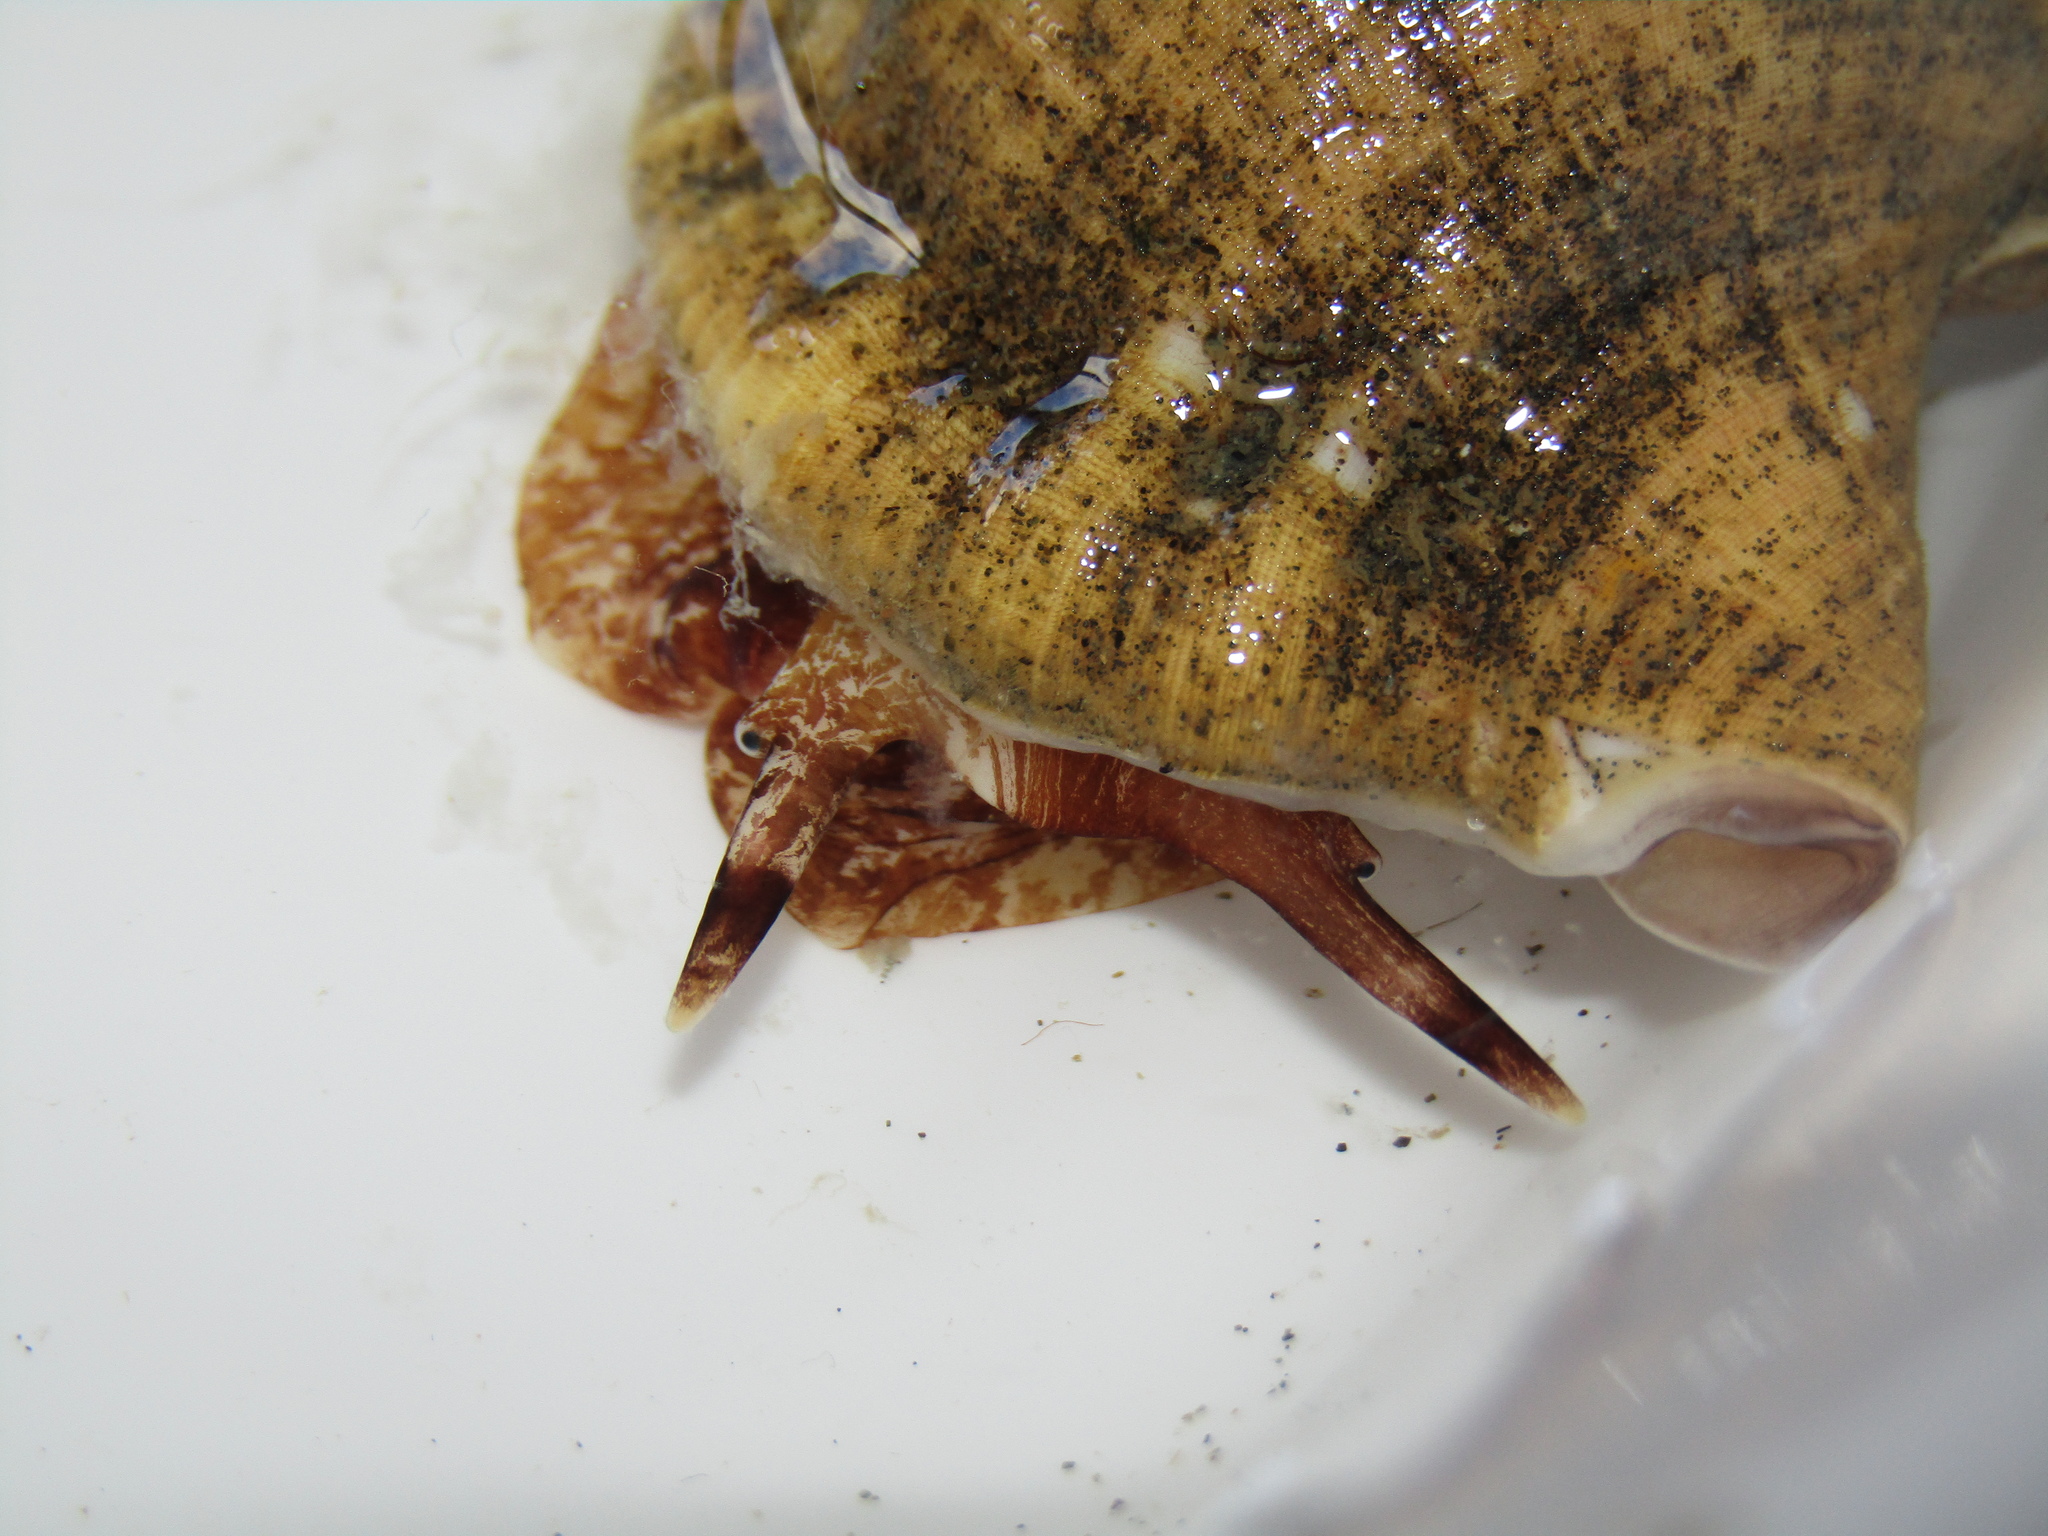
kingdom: Animalia
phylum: Mollusca
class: Gastropoda
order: Littorinimorpha
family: Ranellidae
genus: Ranella
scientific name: Ranella australasia
